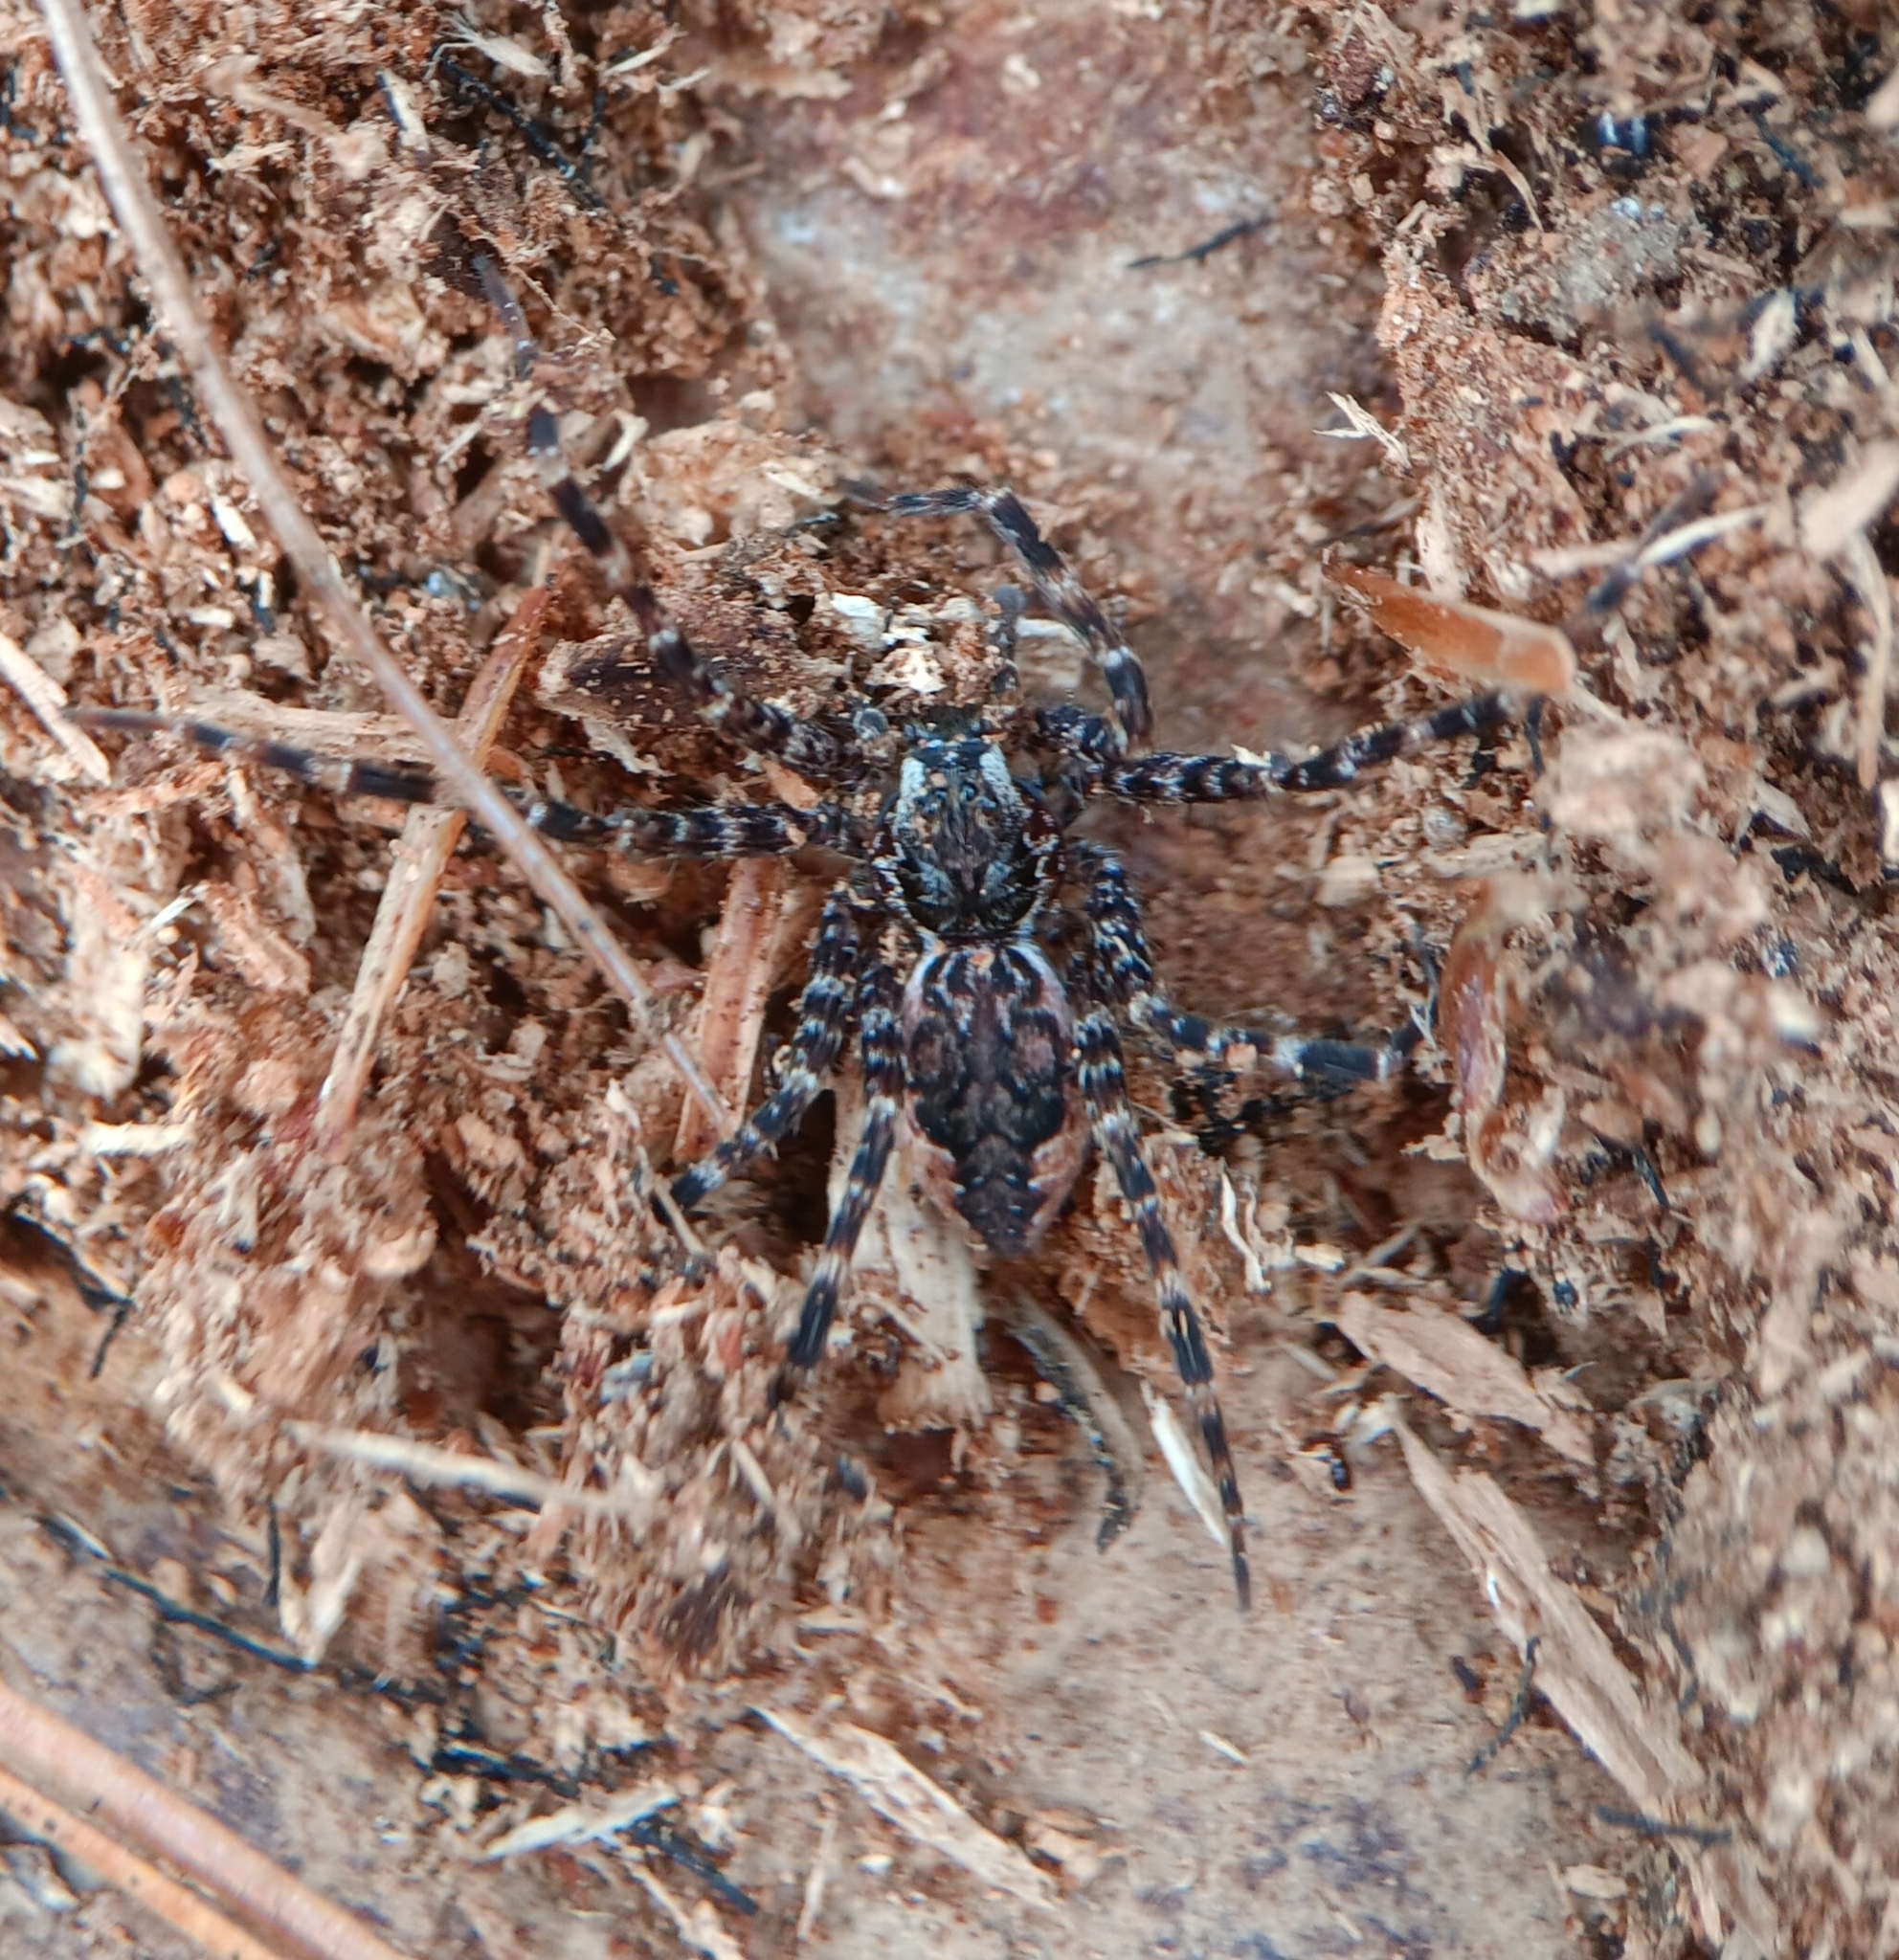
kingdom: Animalia
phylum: Arthropoda
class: Arachnida
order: Araneae
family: Pisauridae
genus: Dolomedes
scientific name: Dolomedes tenebrosus
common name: Dark fishing spider
